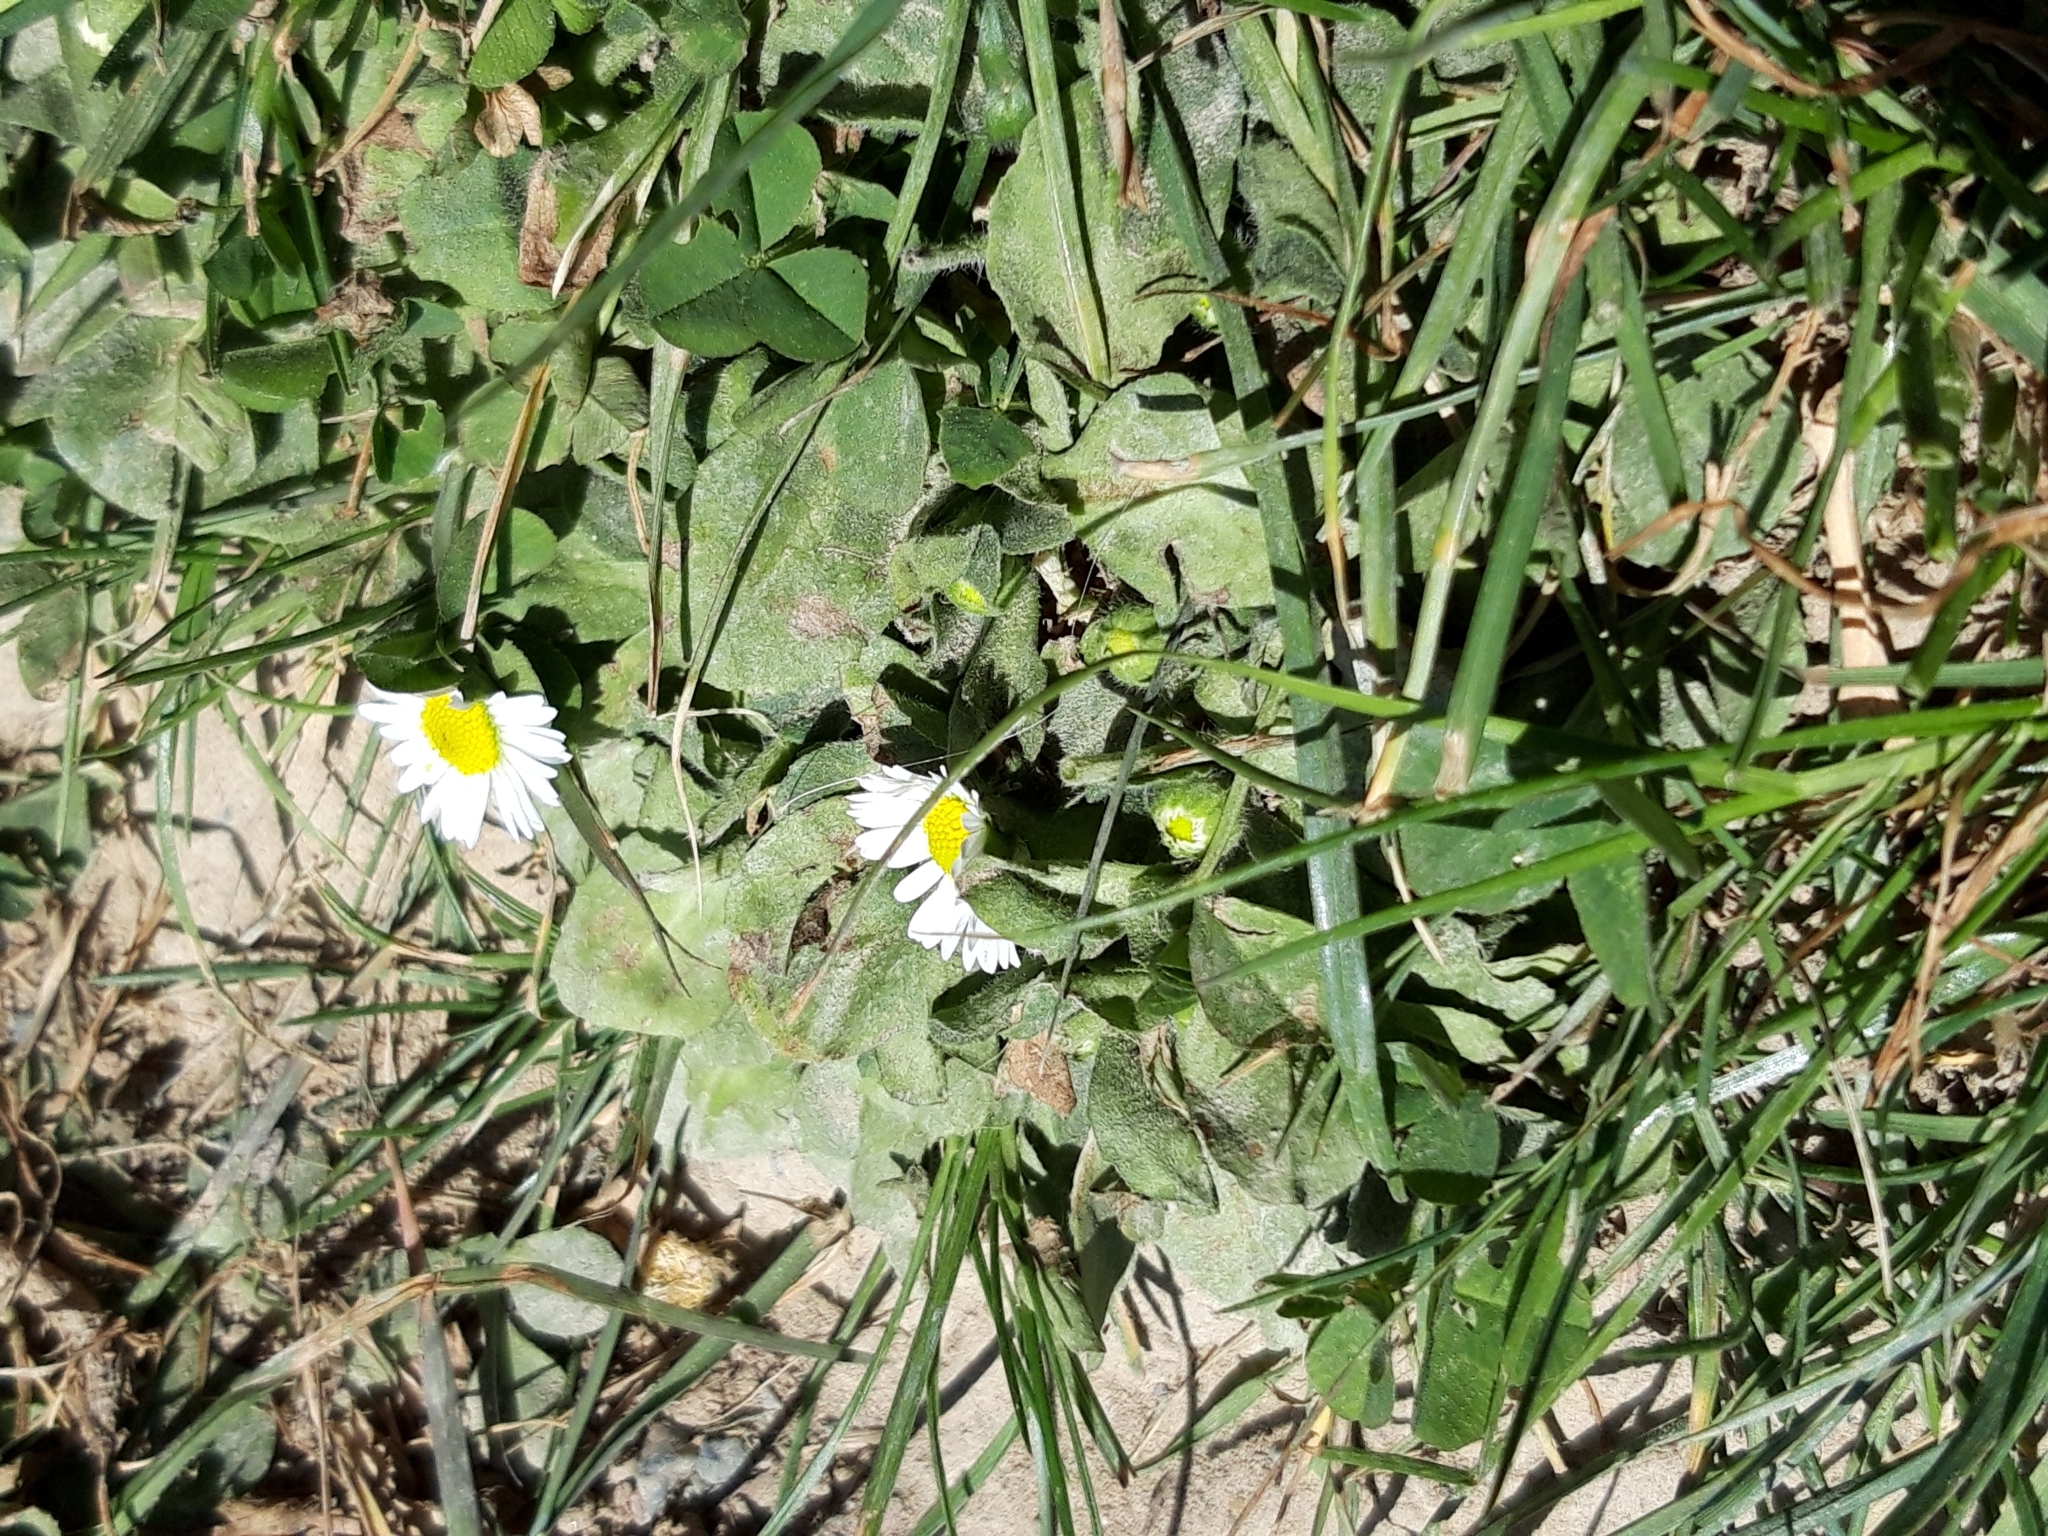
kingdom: Plantae
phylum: Tracheophyta
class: Magnoliopsida
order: Asterales
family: Asteraceae
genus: Bellis
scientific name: Bellis perennis
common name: Lawndaisy
